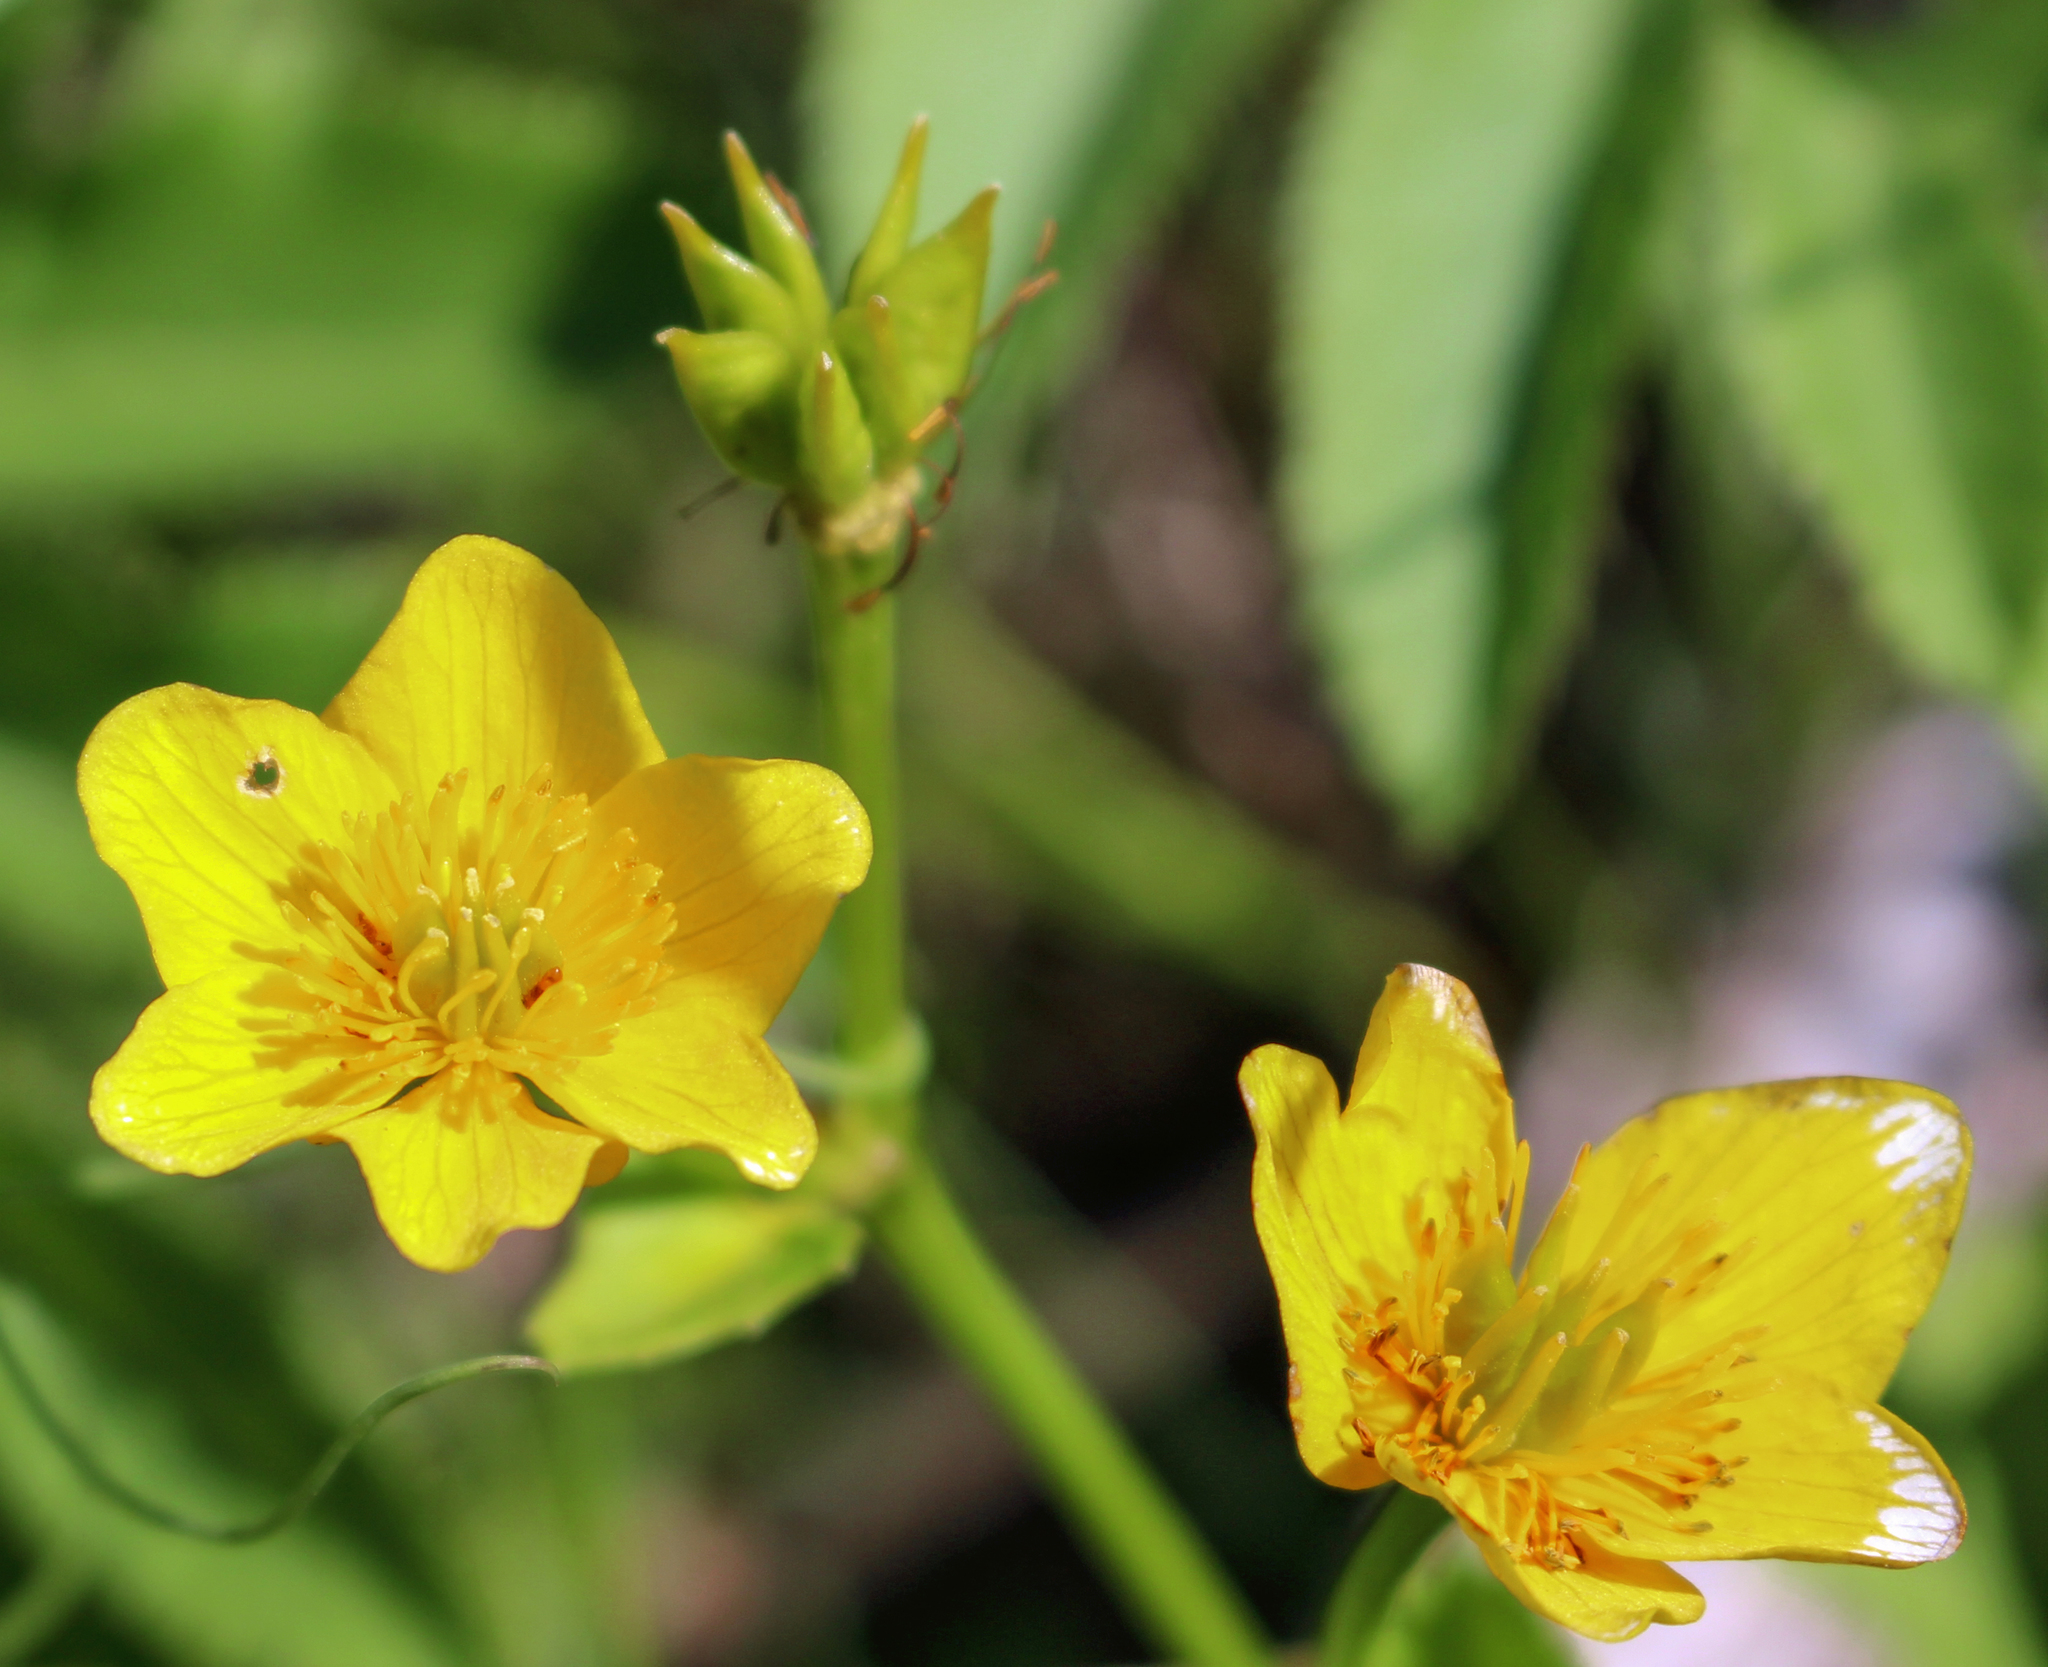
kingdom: Plantae
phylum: Tracheophyta
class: Magnoliopsida
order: Ranunculales
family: Ranunculaceae
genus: Caltha
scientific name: Caltha palustris
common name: Marsh marigold
